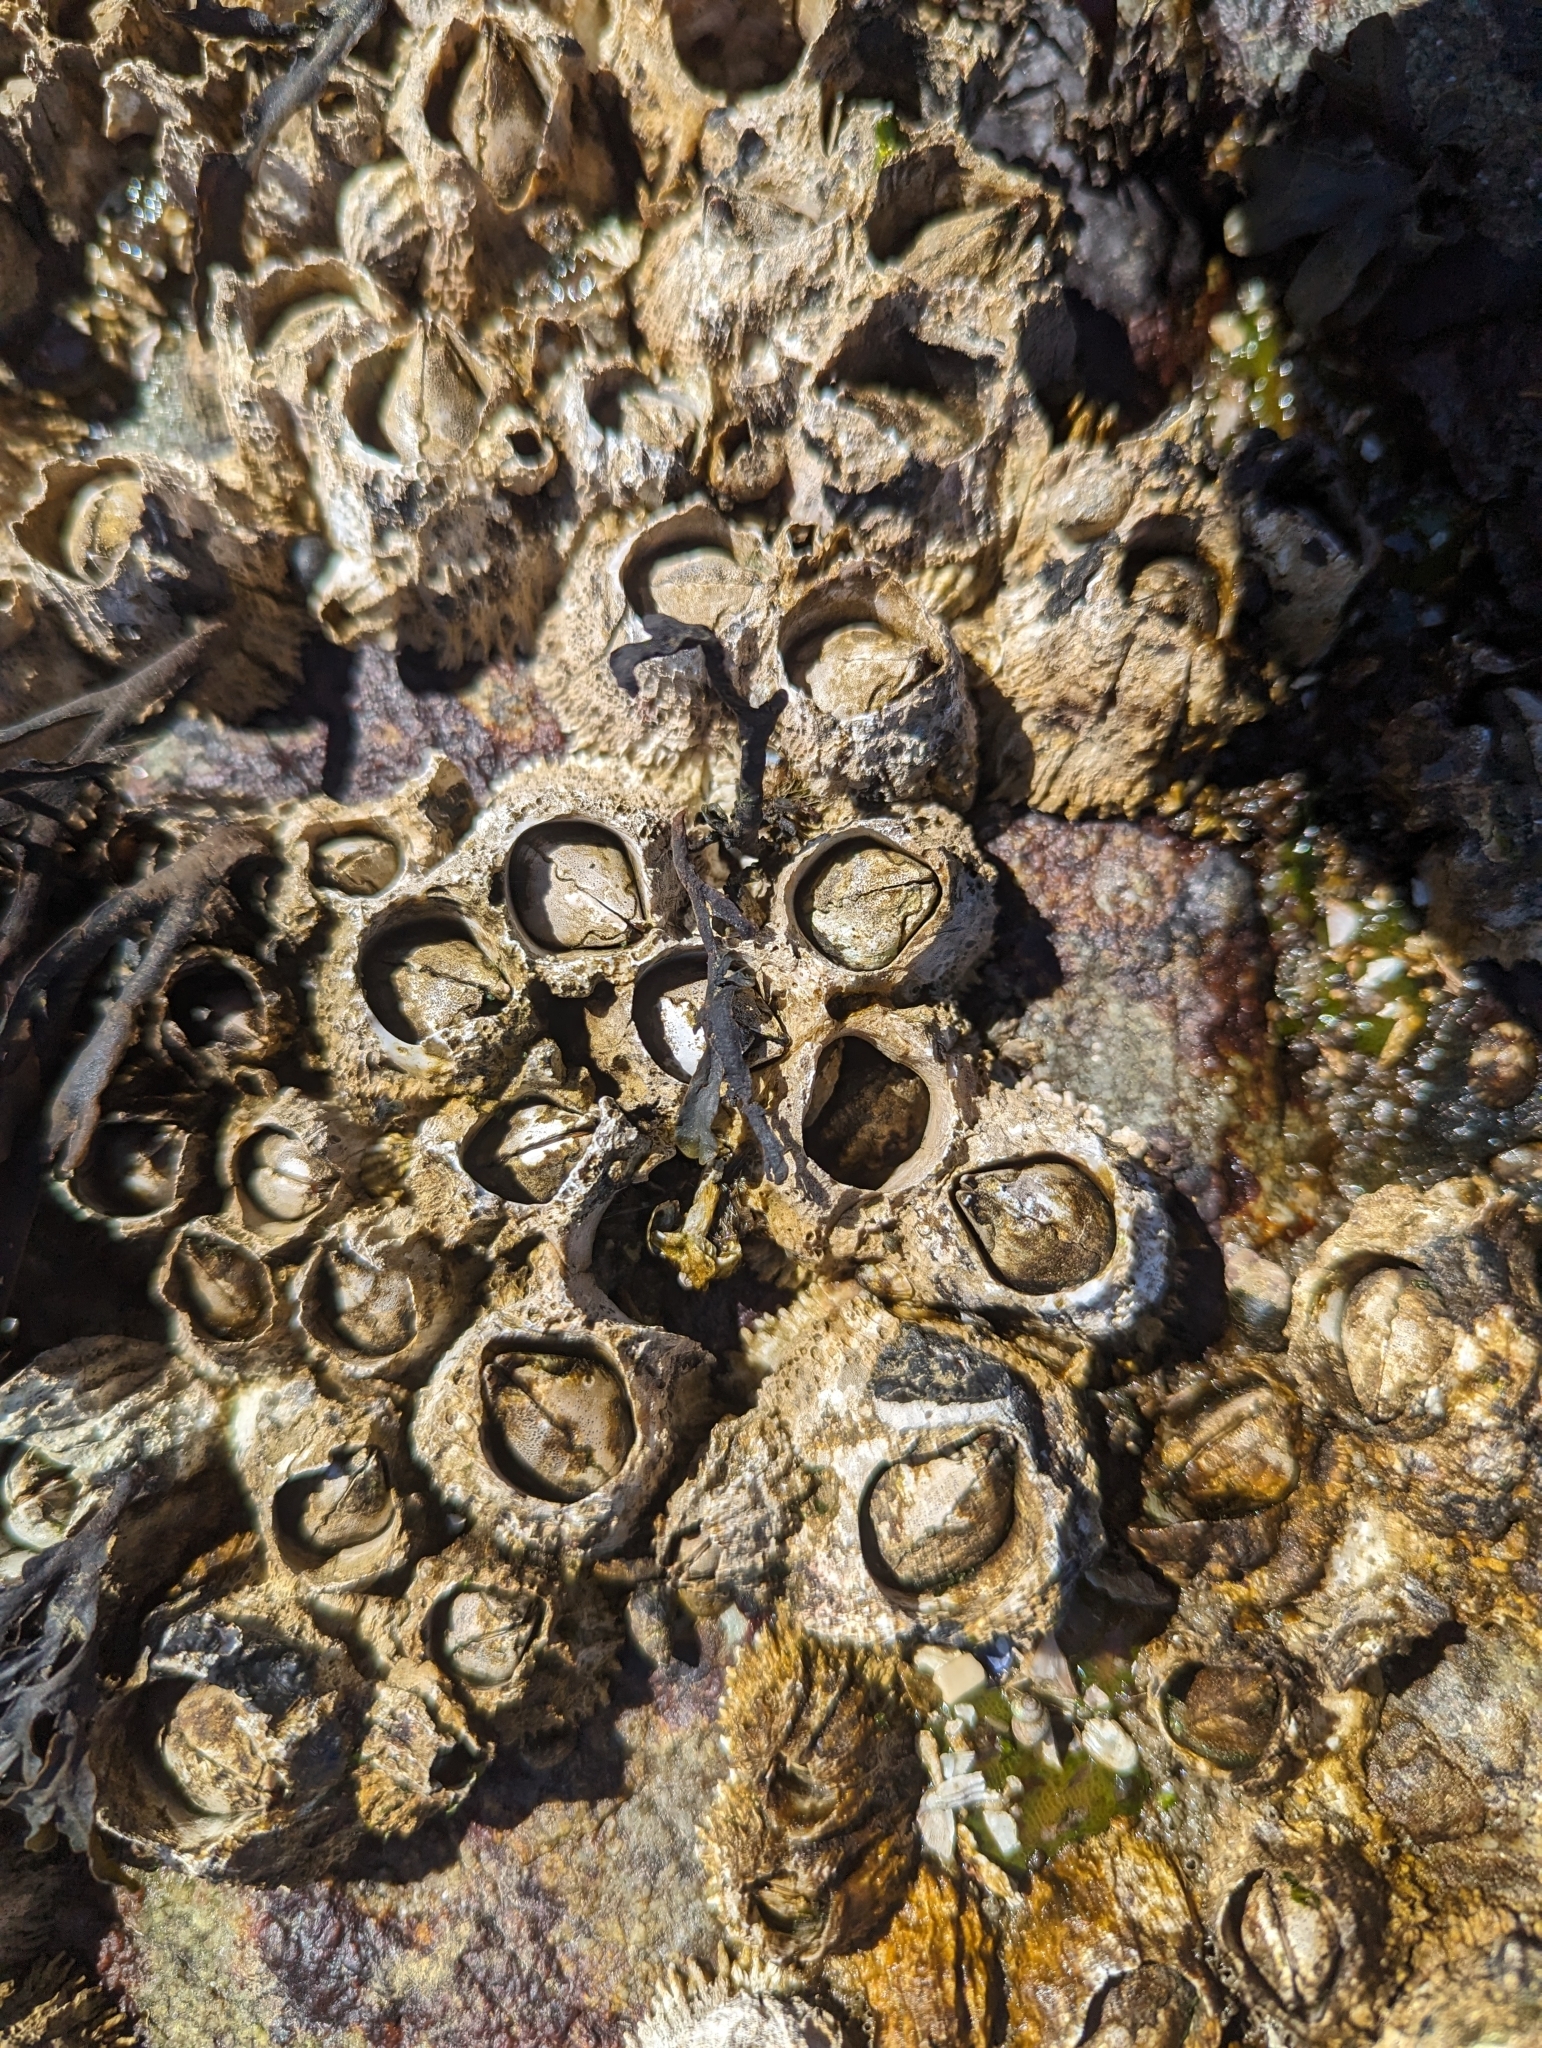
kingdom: Animalia
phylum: Arthropoda
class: Maxillopoda
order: Sessilia
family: Archaeobalanidae
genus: Semibalanus
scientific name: Semibalanus cariosus
